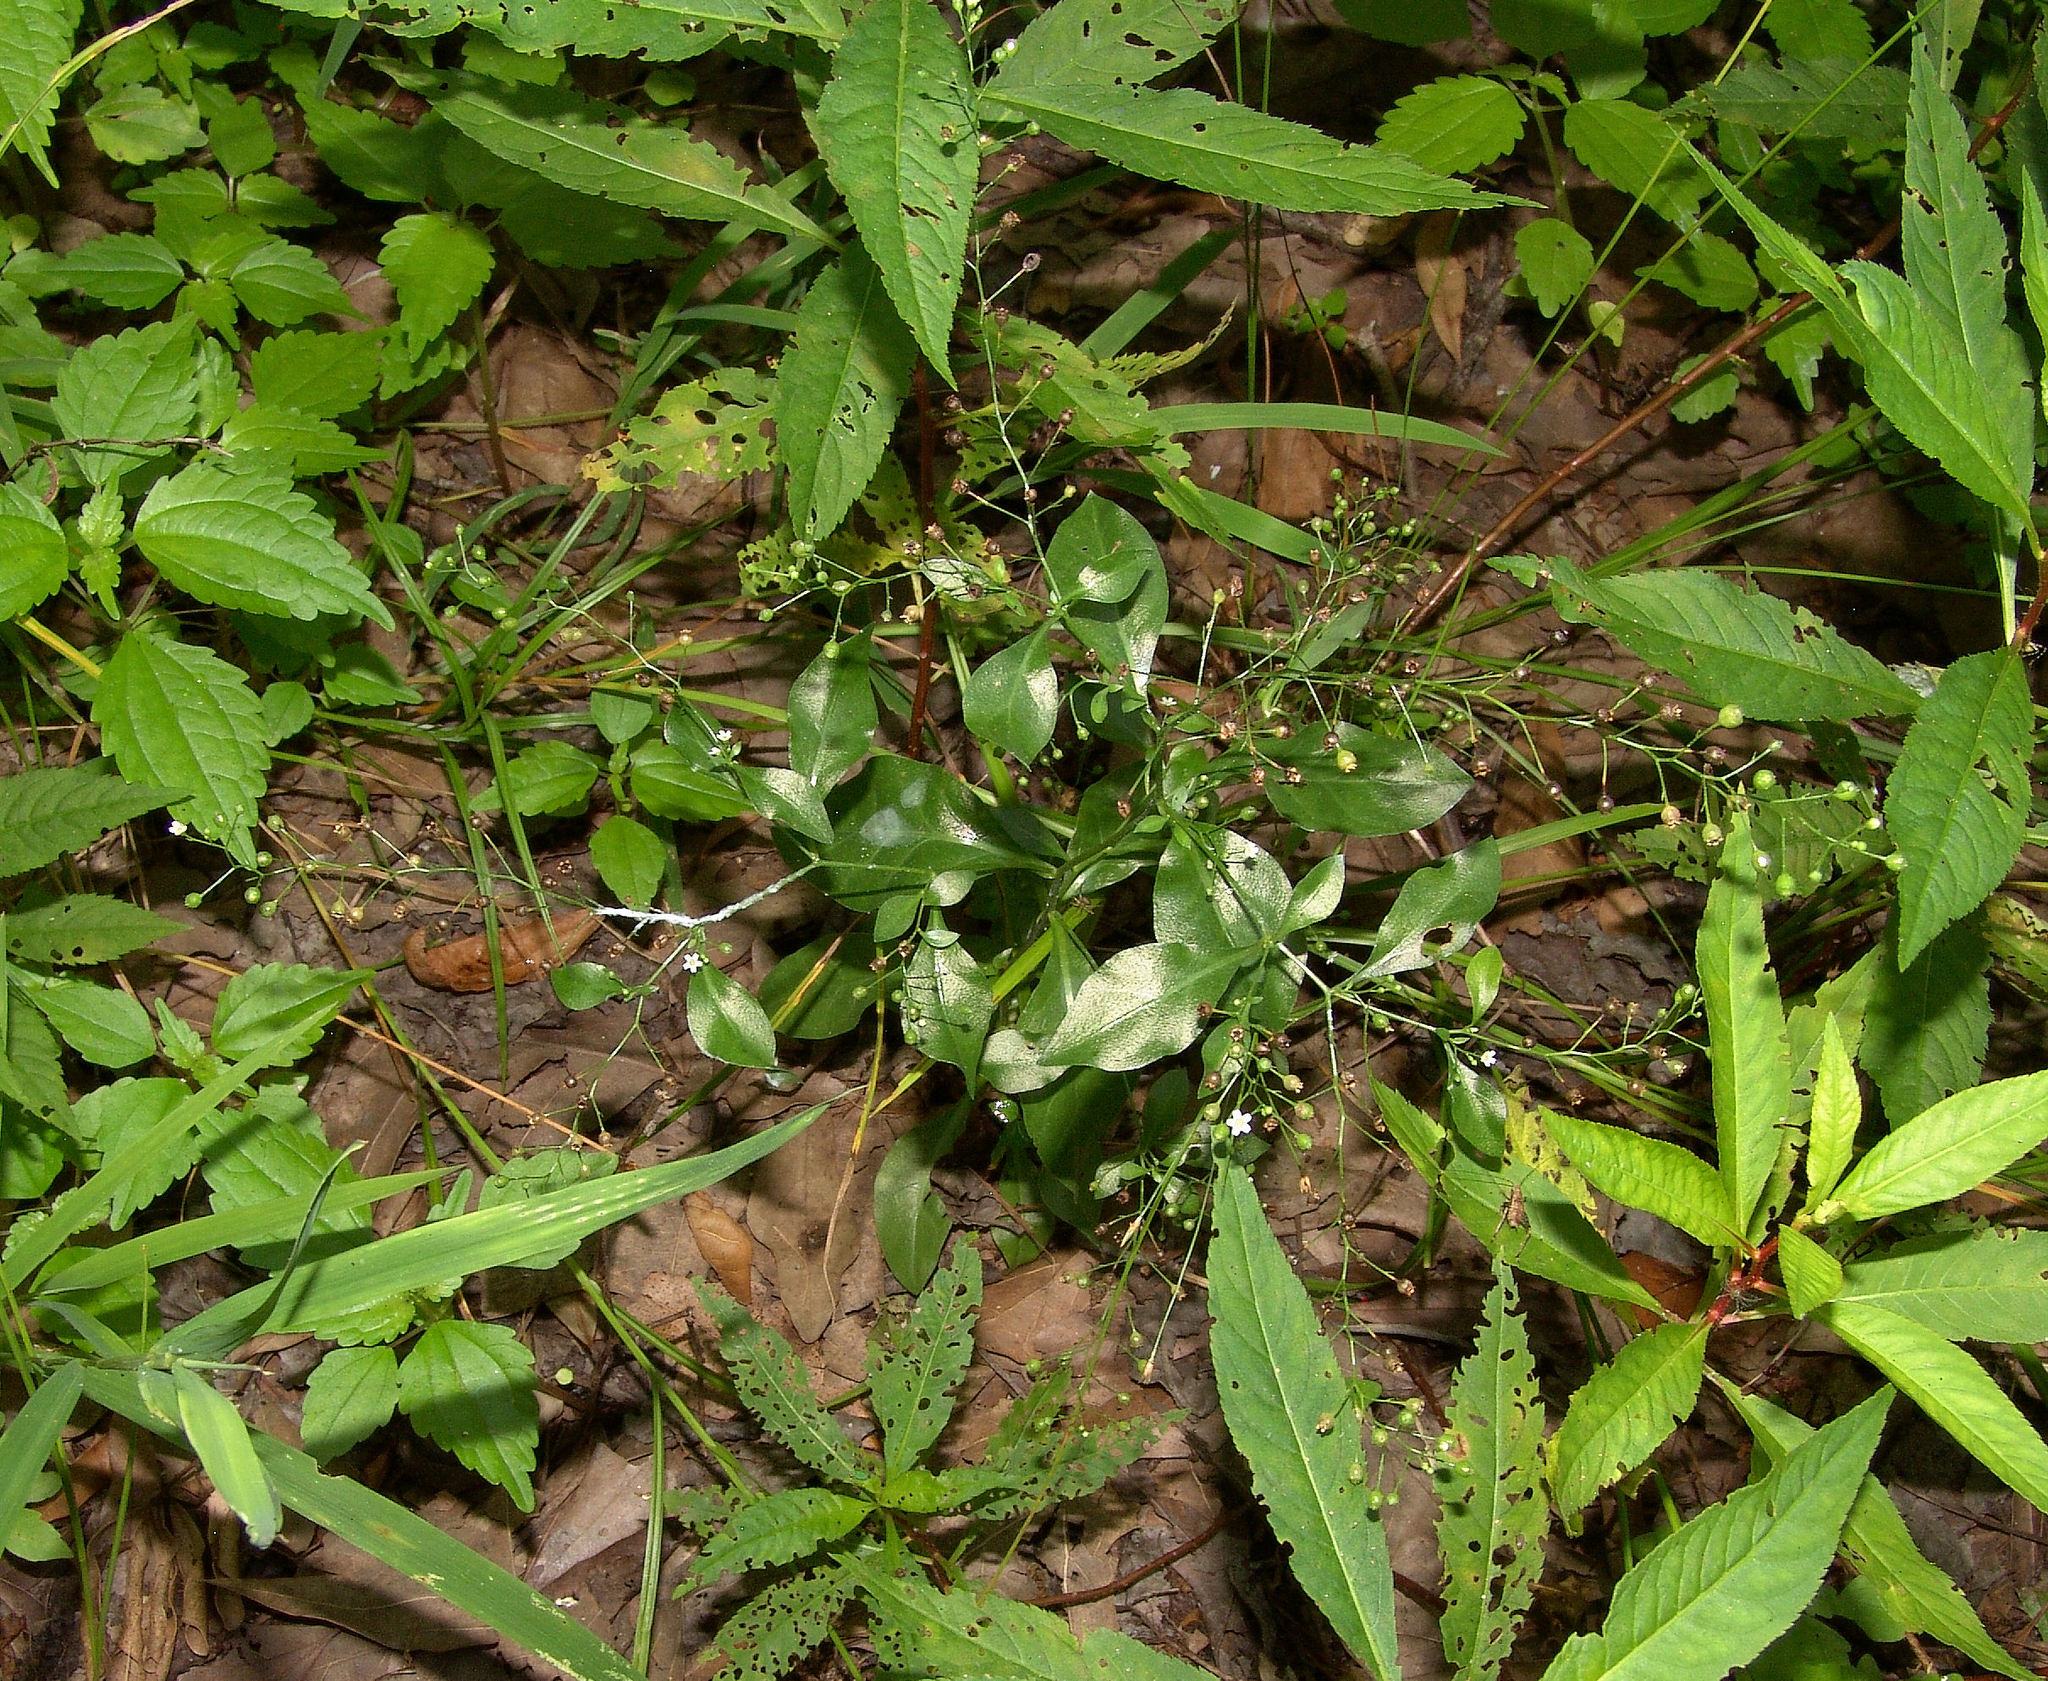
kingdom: Plantae
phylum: Tracheophyta
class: Magnoliopsida
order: Ericales
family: Primulaceae
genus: Samolus
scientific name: Samolus parviflorus
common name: False water pimpernel
